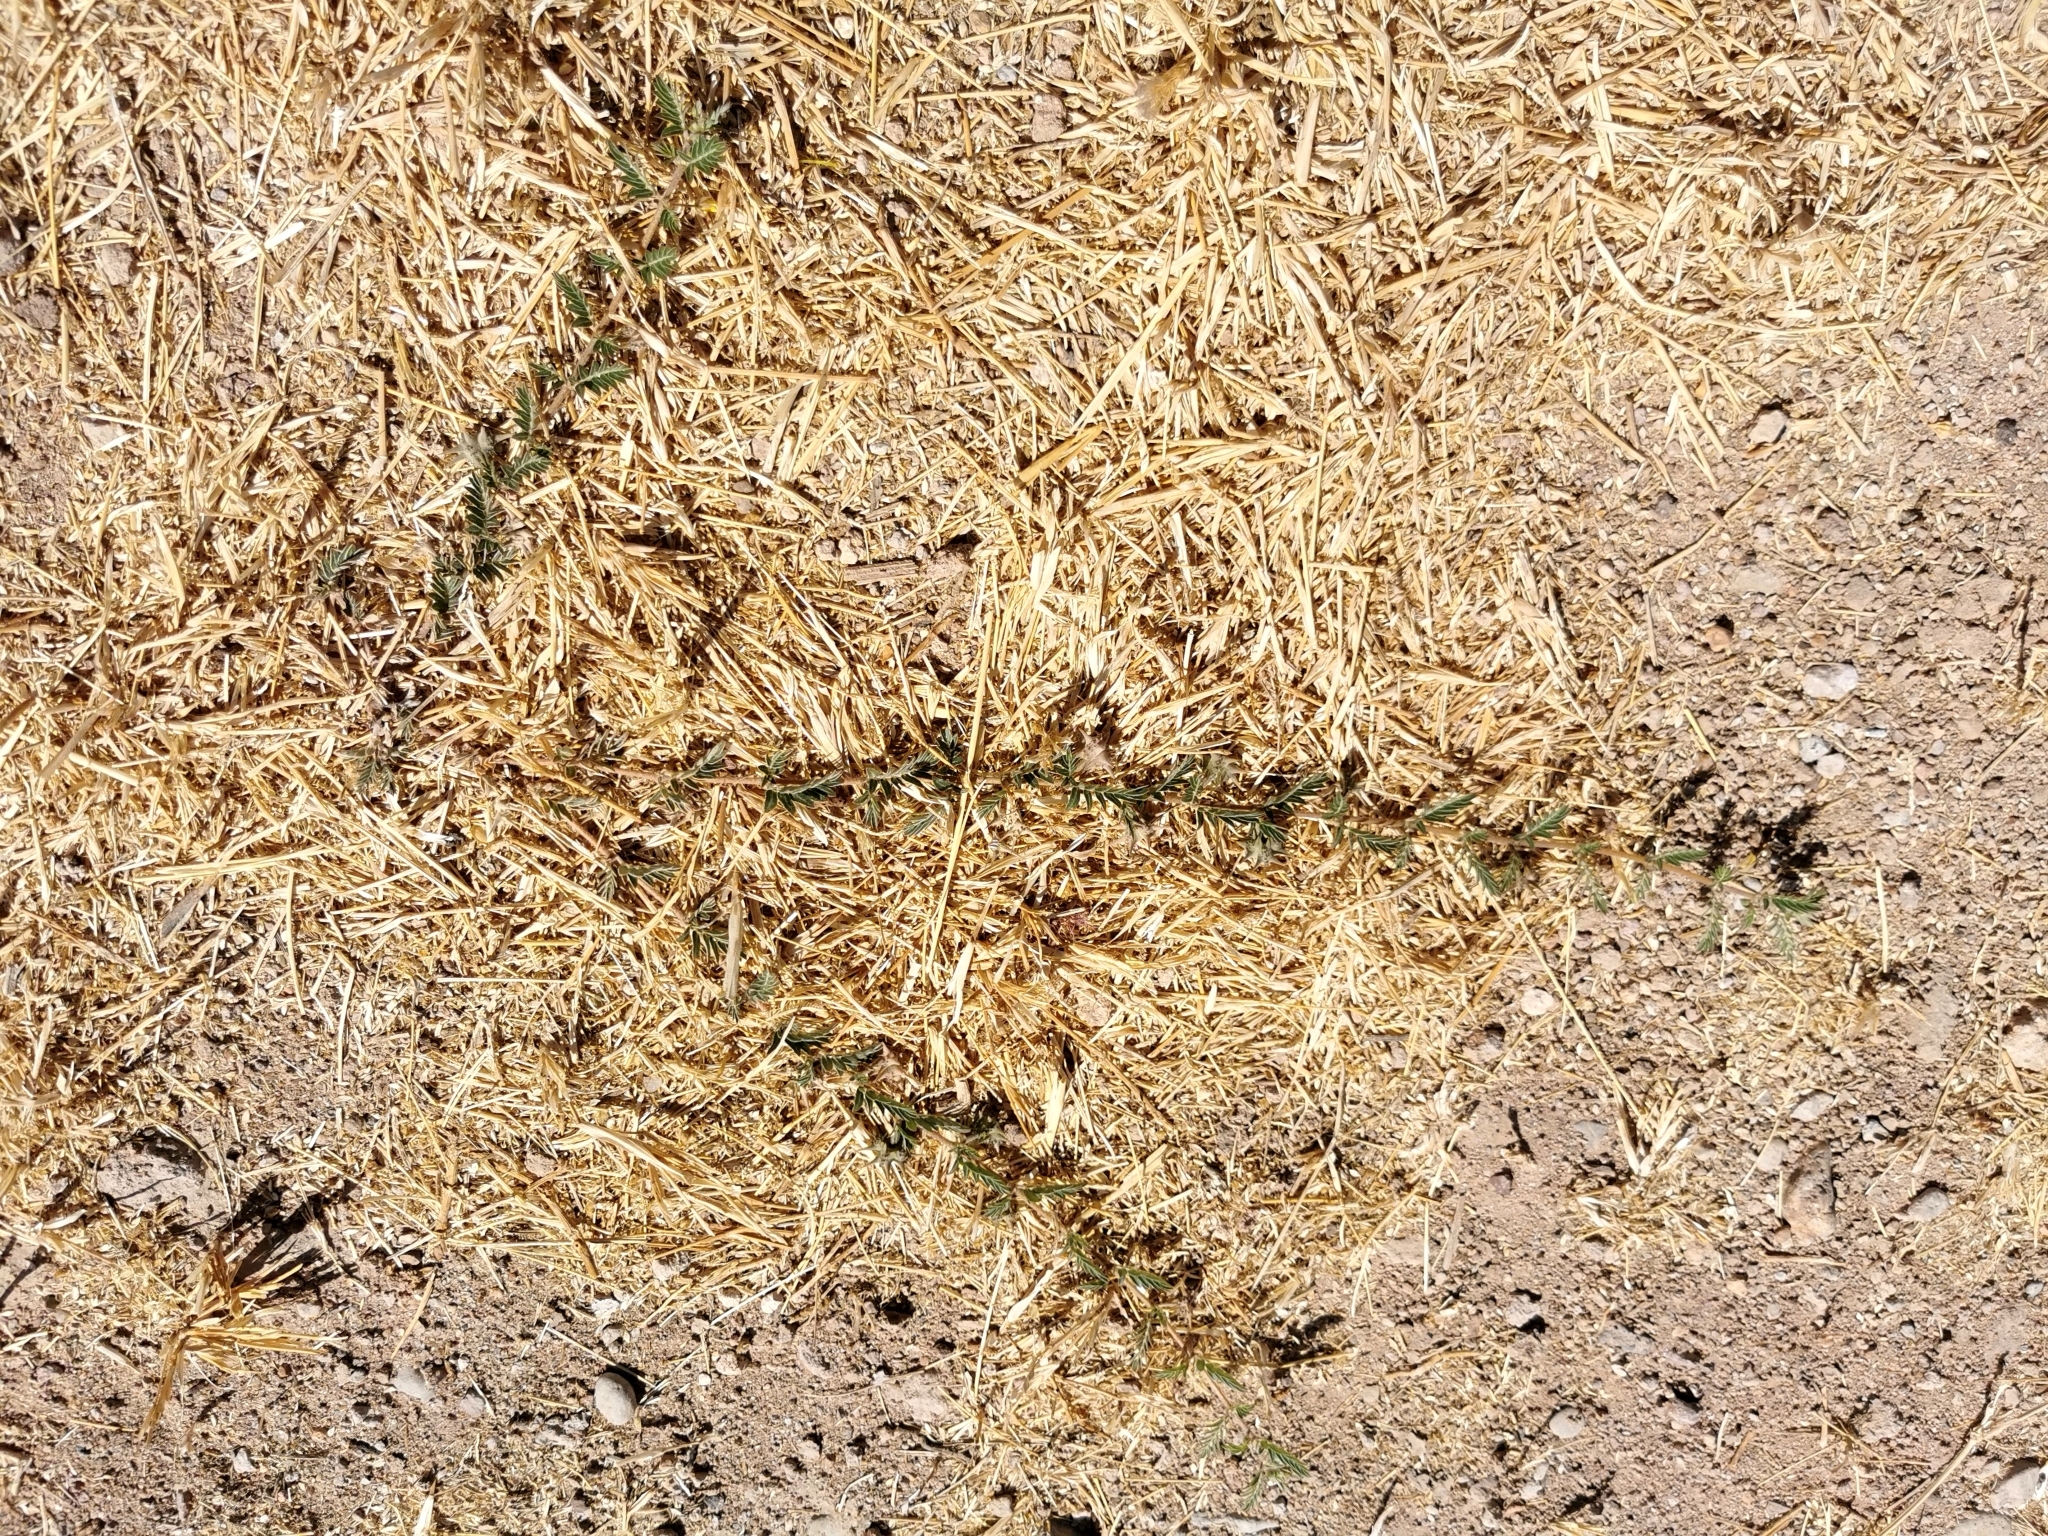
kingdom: Plantae
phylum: Tracheophyta
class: Magnoliopsida
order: Zygophyllales
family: Zygophyllaceae
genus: Tribulus
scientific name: Tribulus terrestris
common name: Puncturevine
